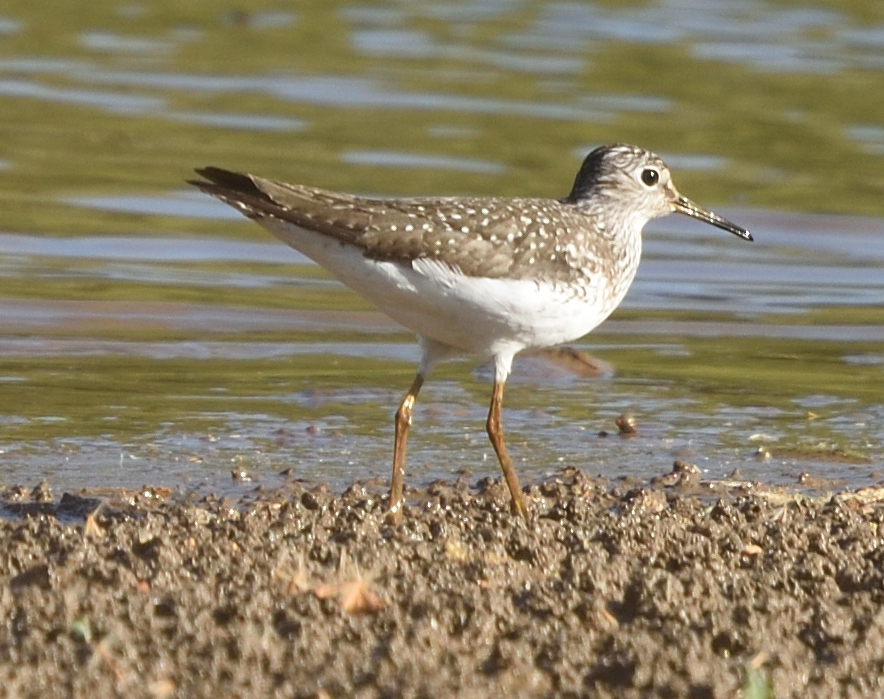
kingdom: Animalia
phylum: Chordata
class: Aves
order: Charadriiformes
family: Scolopacidae
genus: Tringa
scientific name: Tringa solitaria
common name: Solitary sandpiper
